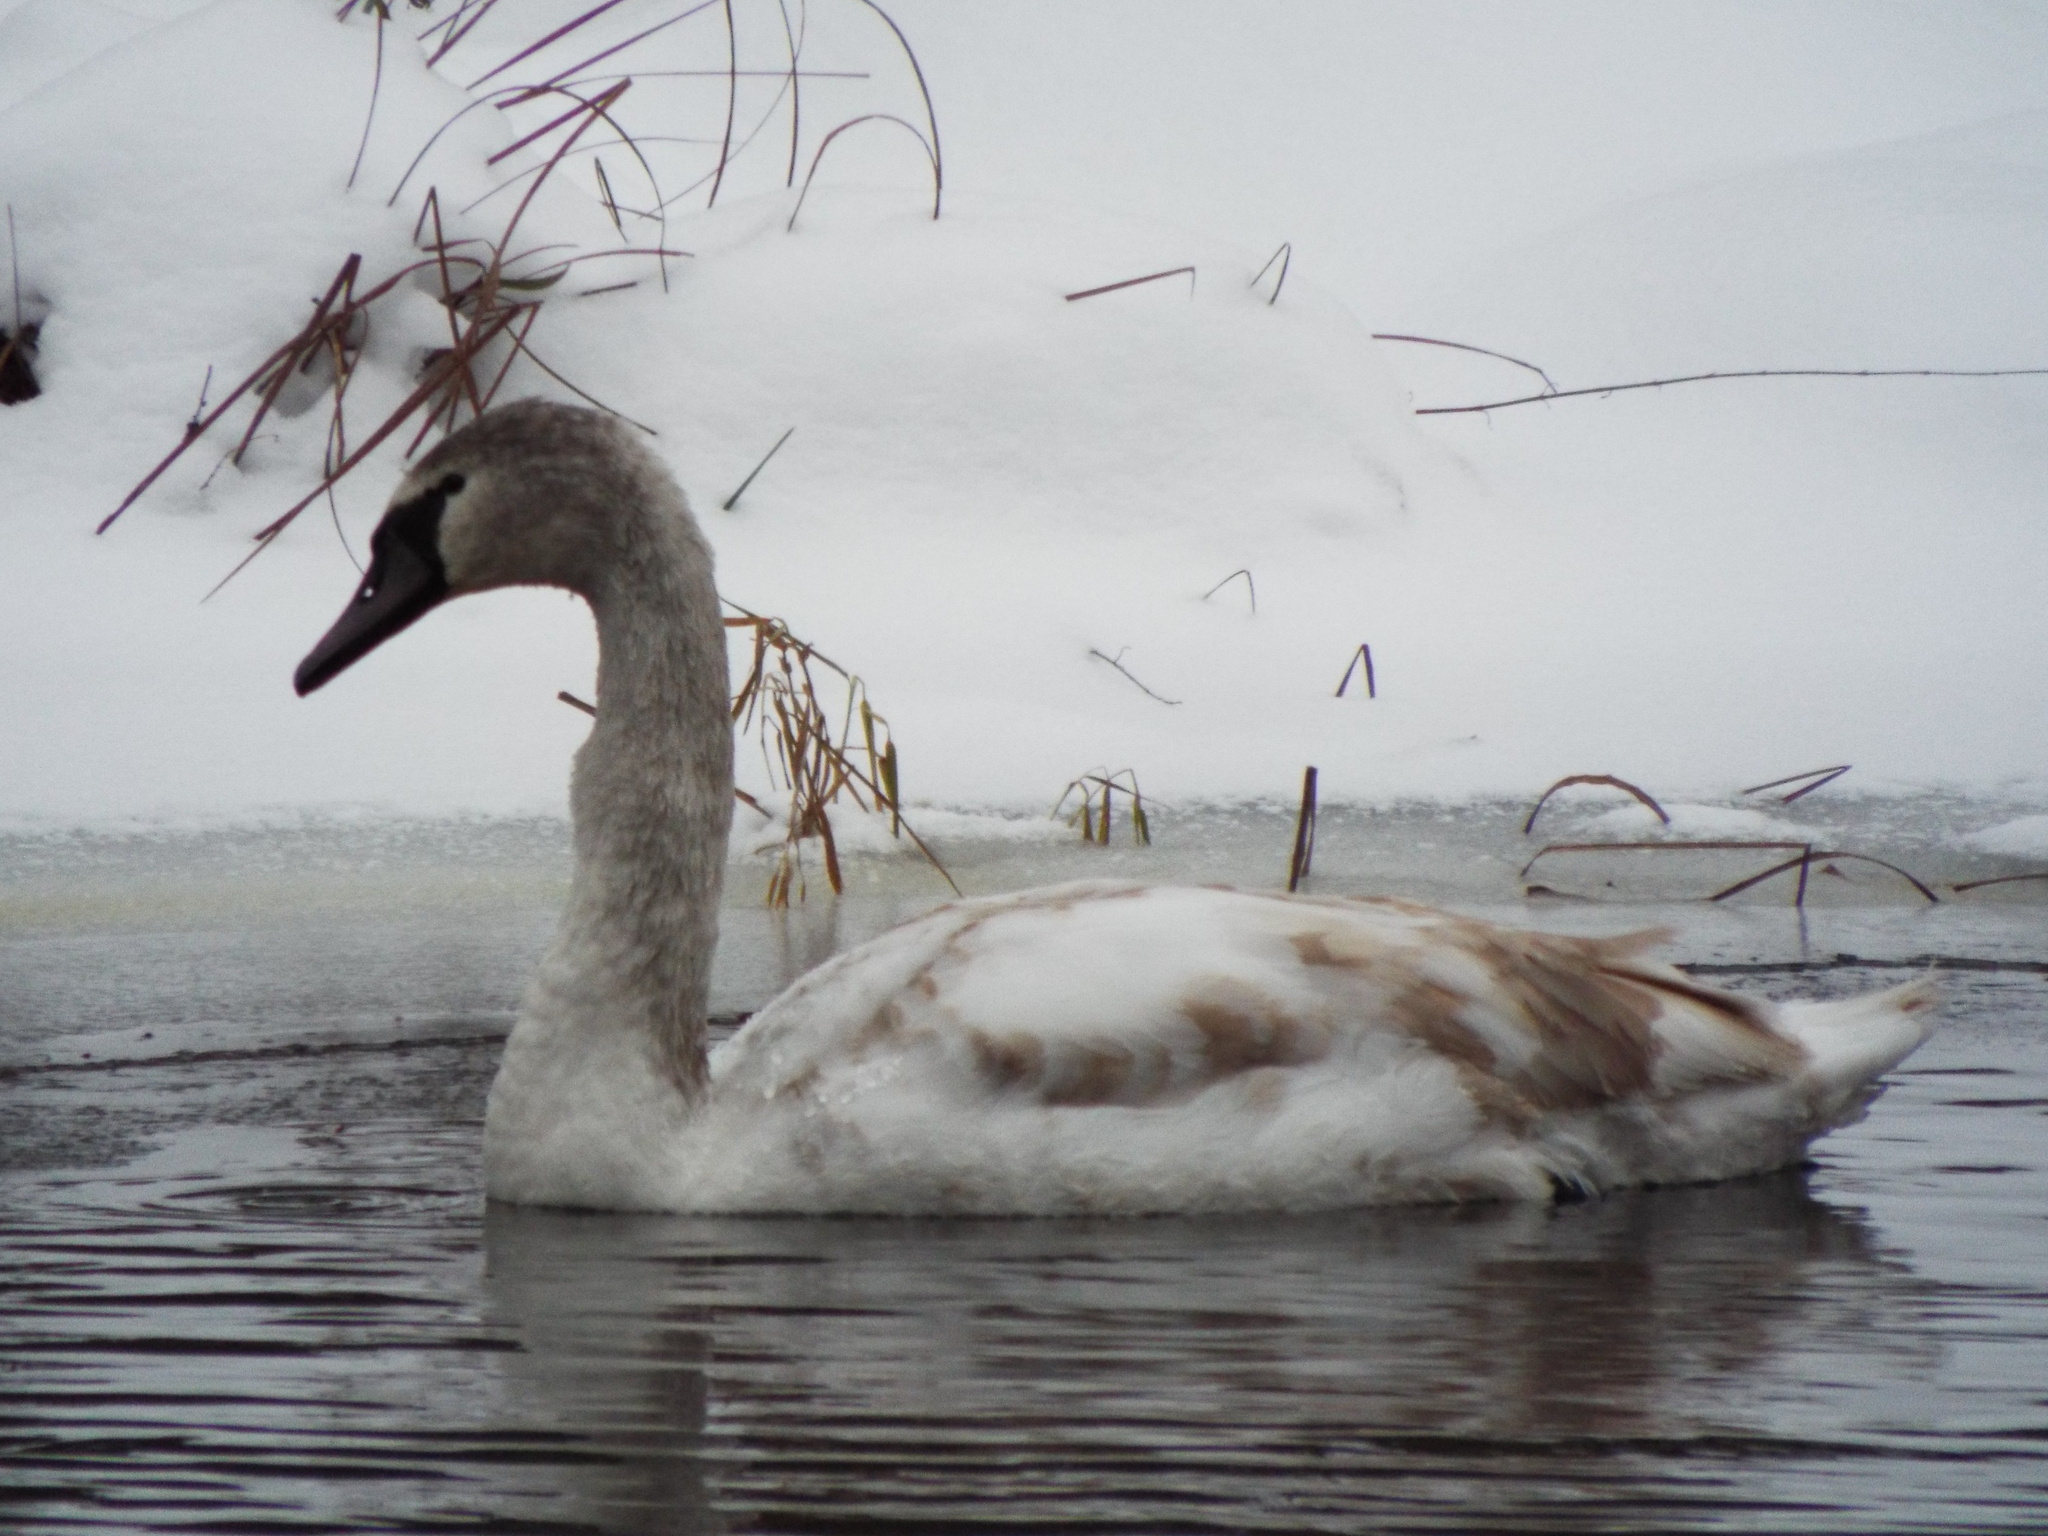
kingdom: Animalia
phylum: Chordata
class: Aves
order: Anseriformes
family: Anatidae
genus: Cygnus
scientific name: Cygnus olor
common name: Mute swan
